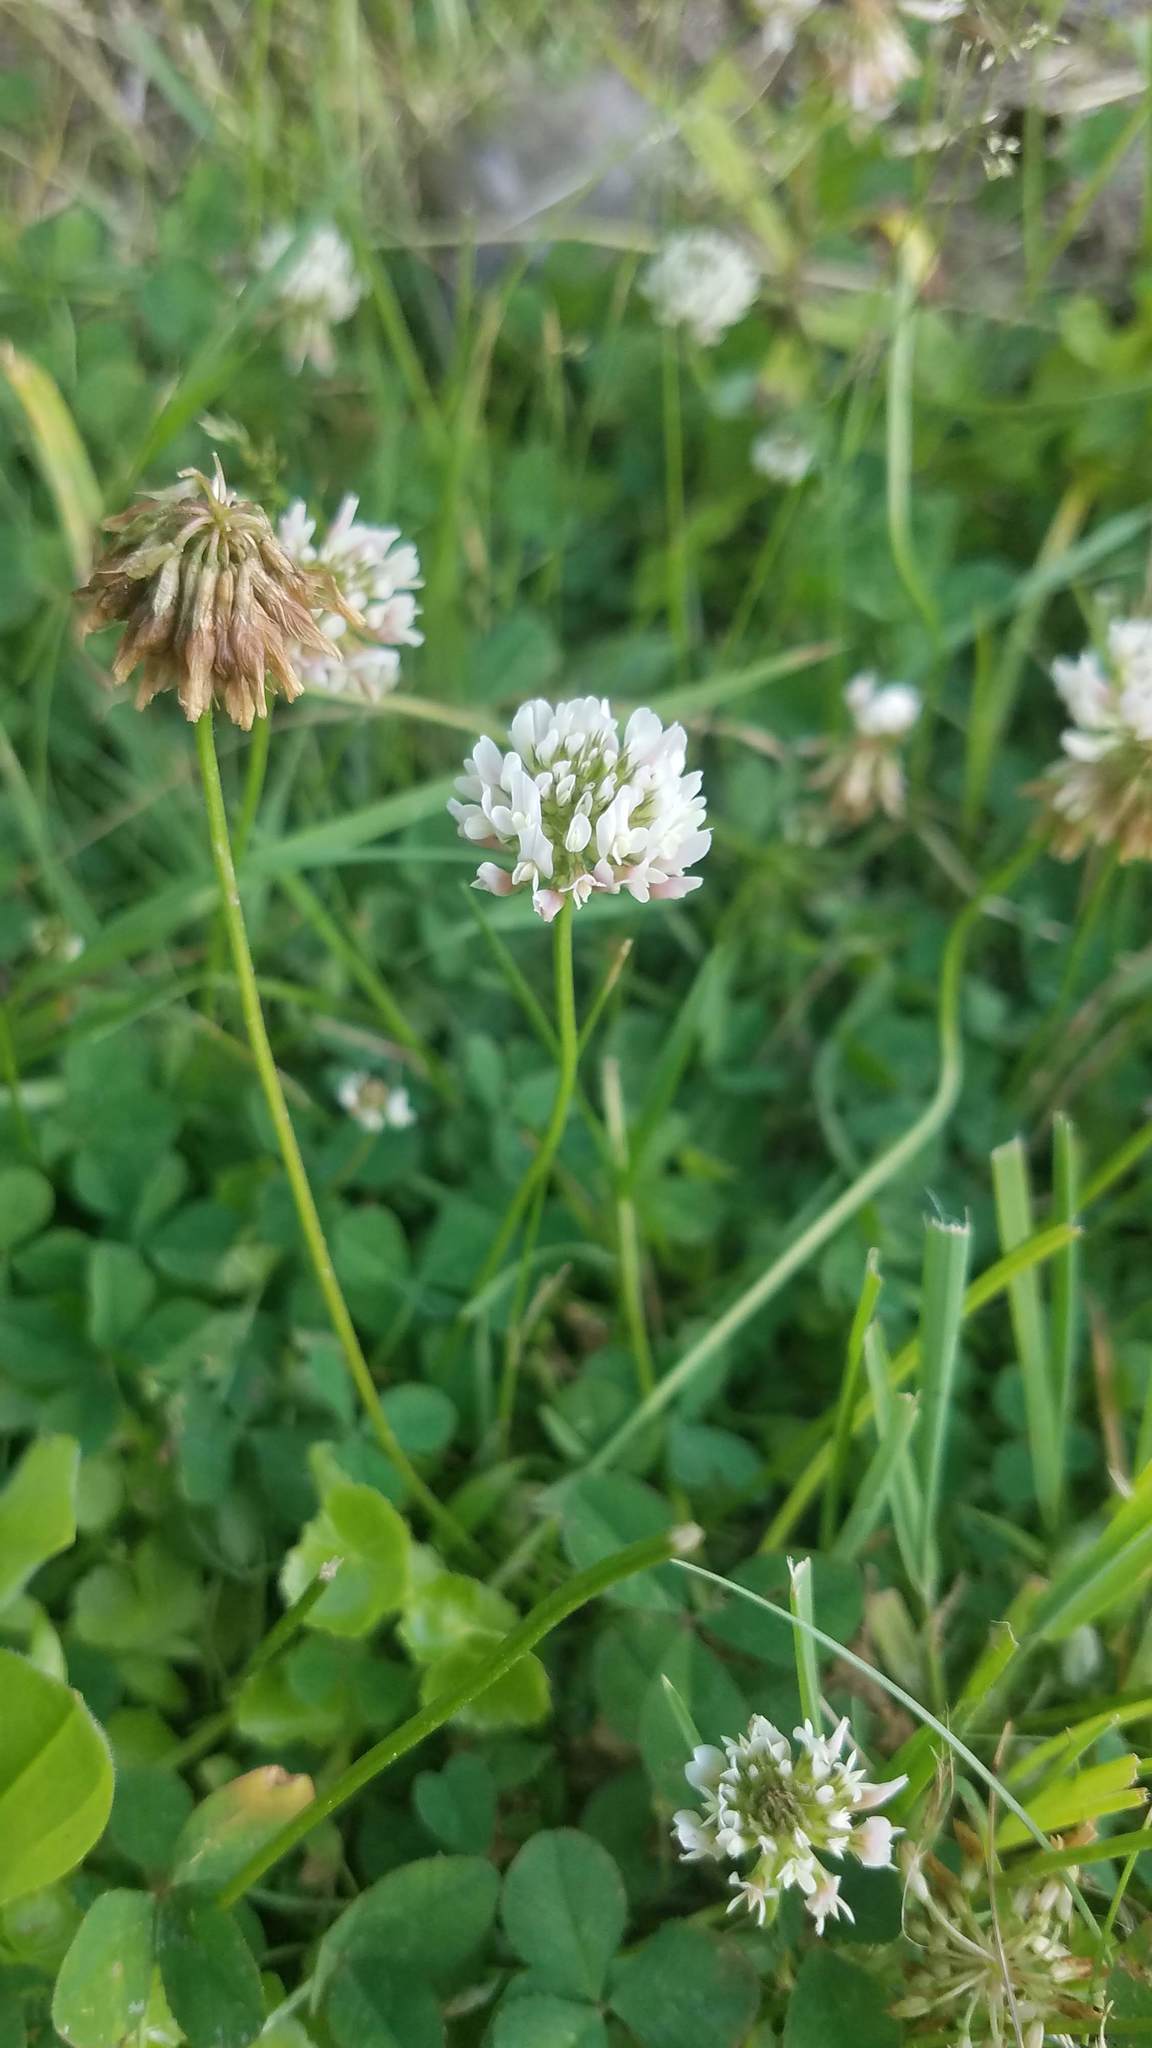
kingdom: Plantae
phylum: Tracheophyta
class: Magnoliopsida
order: Fabales
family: Fabaceae
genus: Trifolium
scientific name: Trifolium repens
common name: White clover
